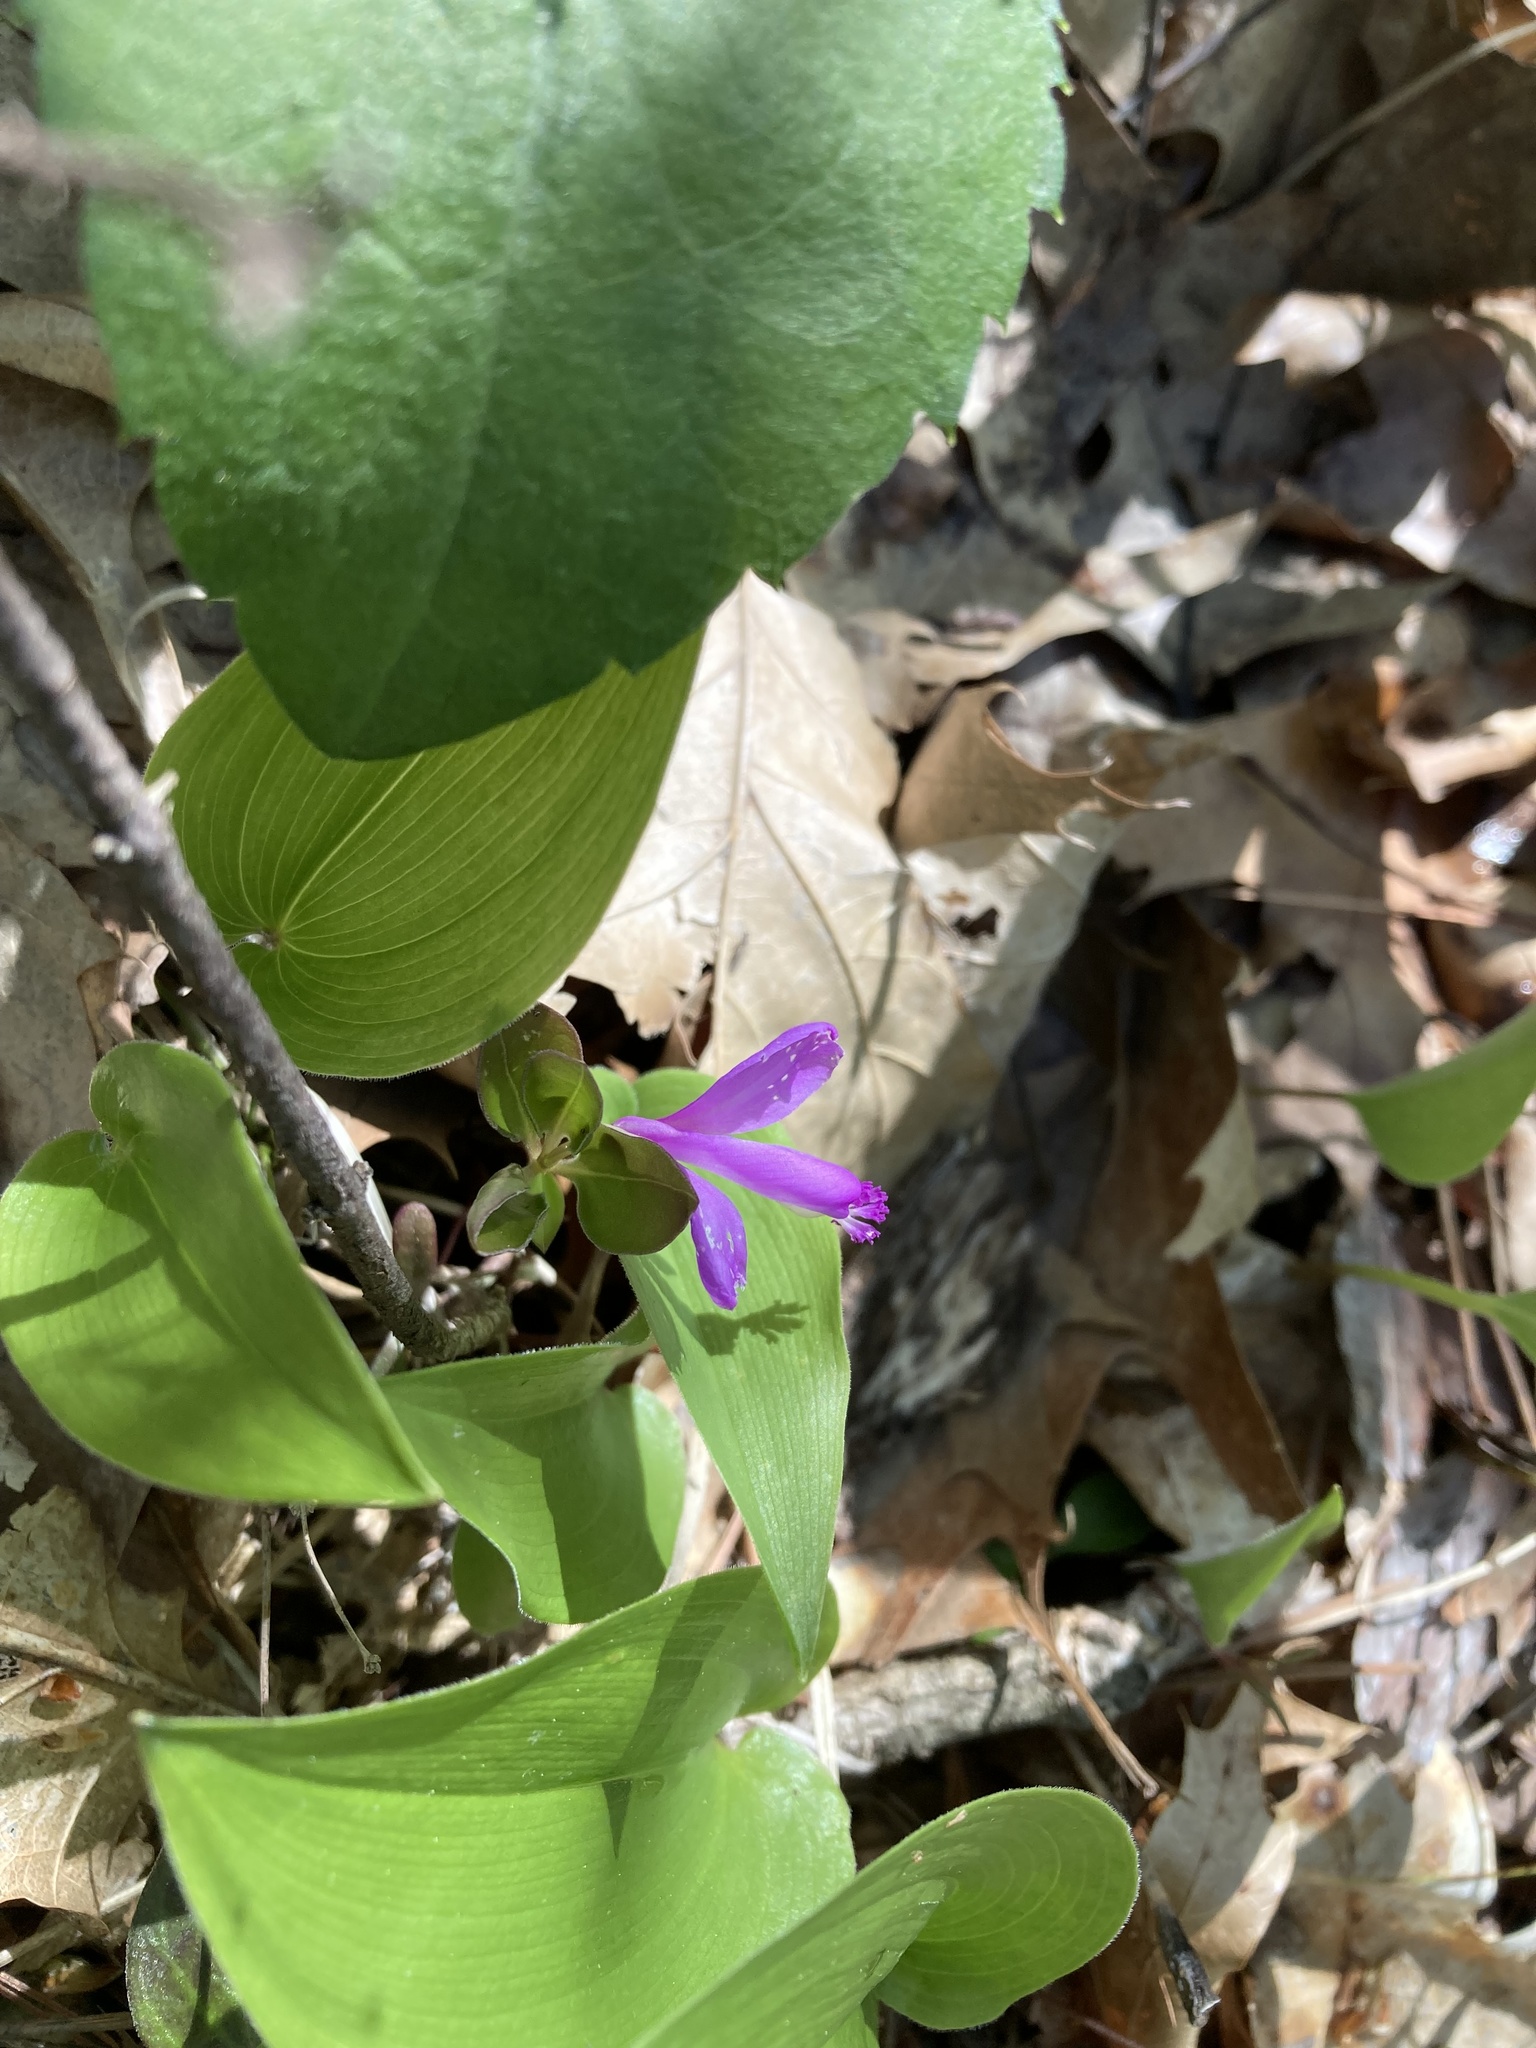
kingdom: Plantae
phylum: Tracheophyta
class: Magnoliopsida
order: Fabales
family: Polygalaceae
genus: Polygaloides
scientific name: Polygaloides paucifolia
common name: Bird-on-the-wing
